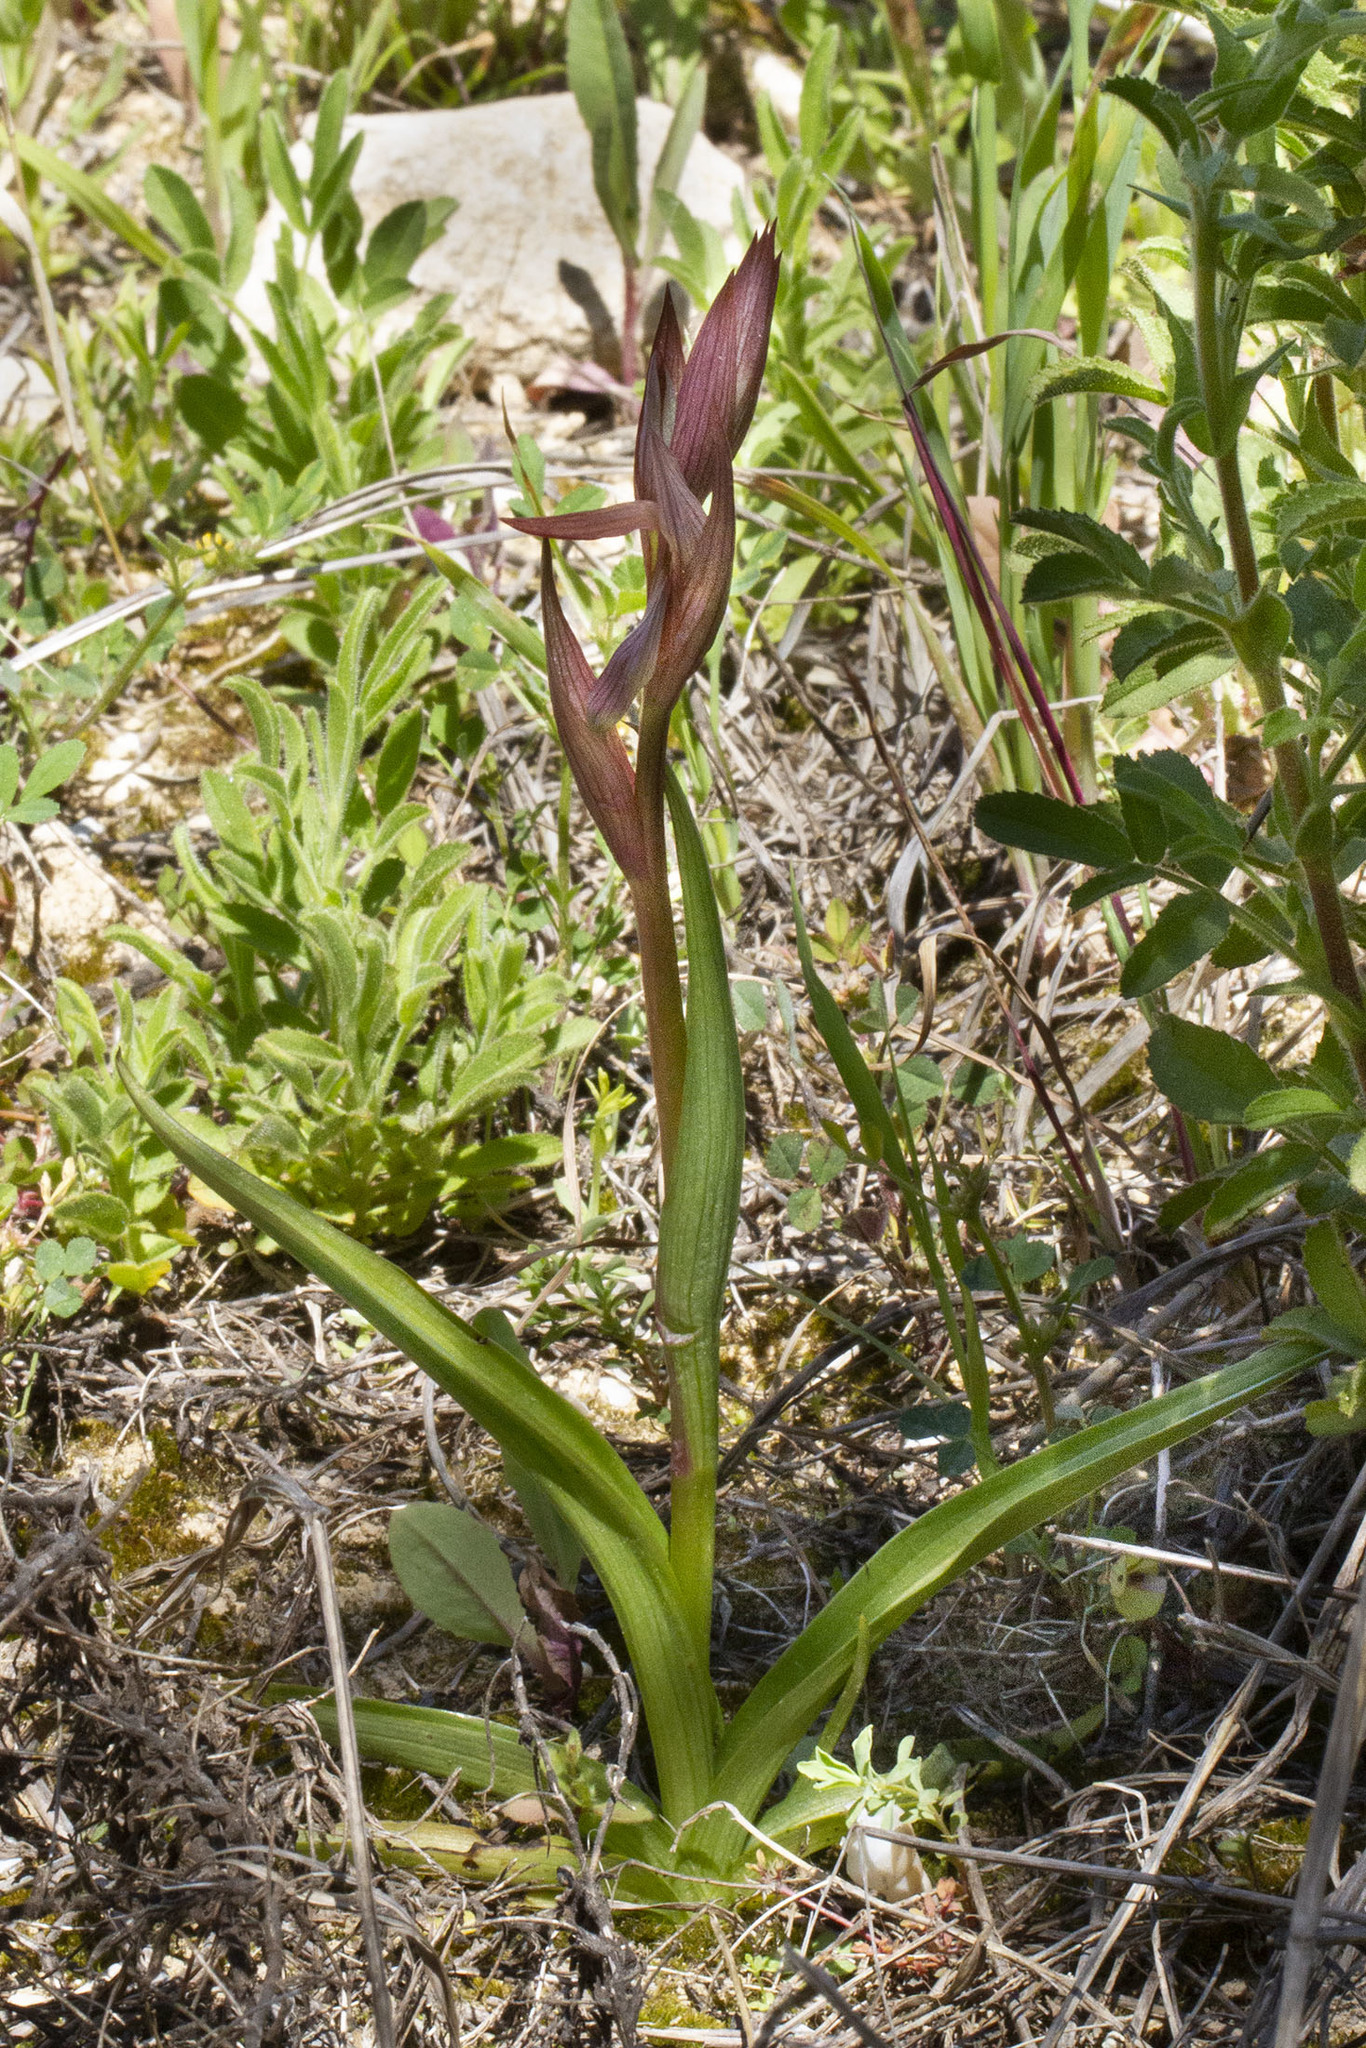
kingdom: Plantae
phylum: Tracheophyta
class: Liliopsida
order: Asparagales
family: Orchidaceae
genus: Serapias
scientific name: Serapias vomeracea
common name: Long-lipped tongue-orchid
